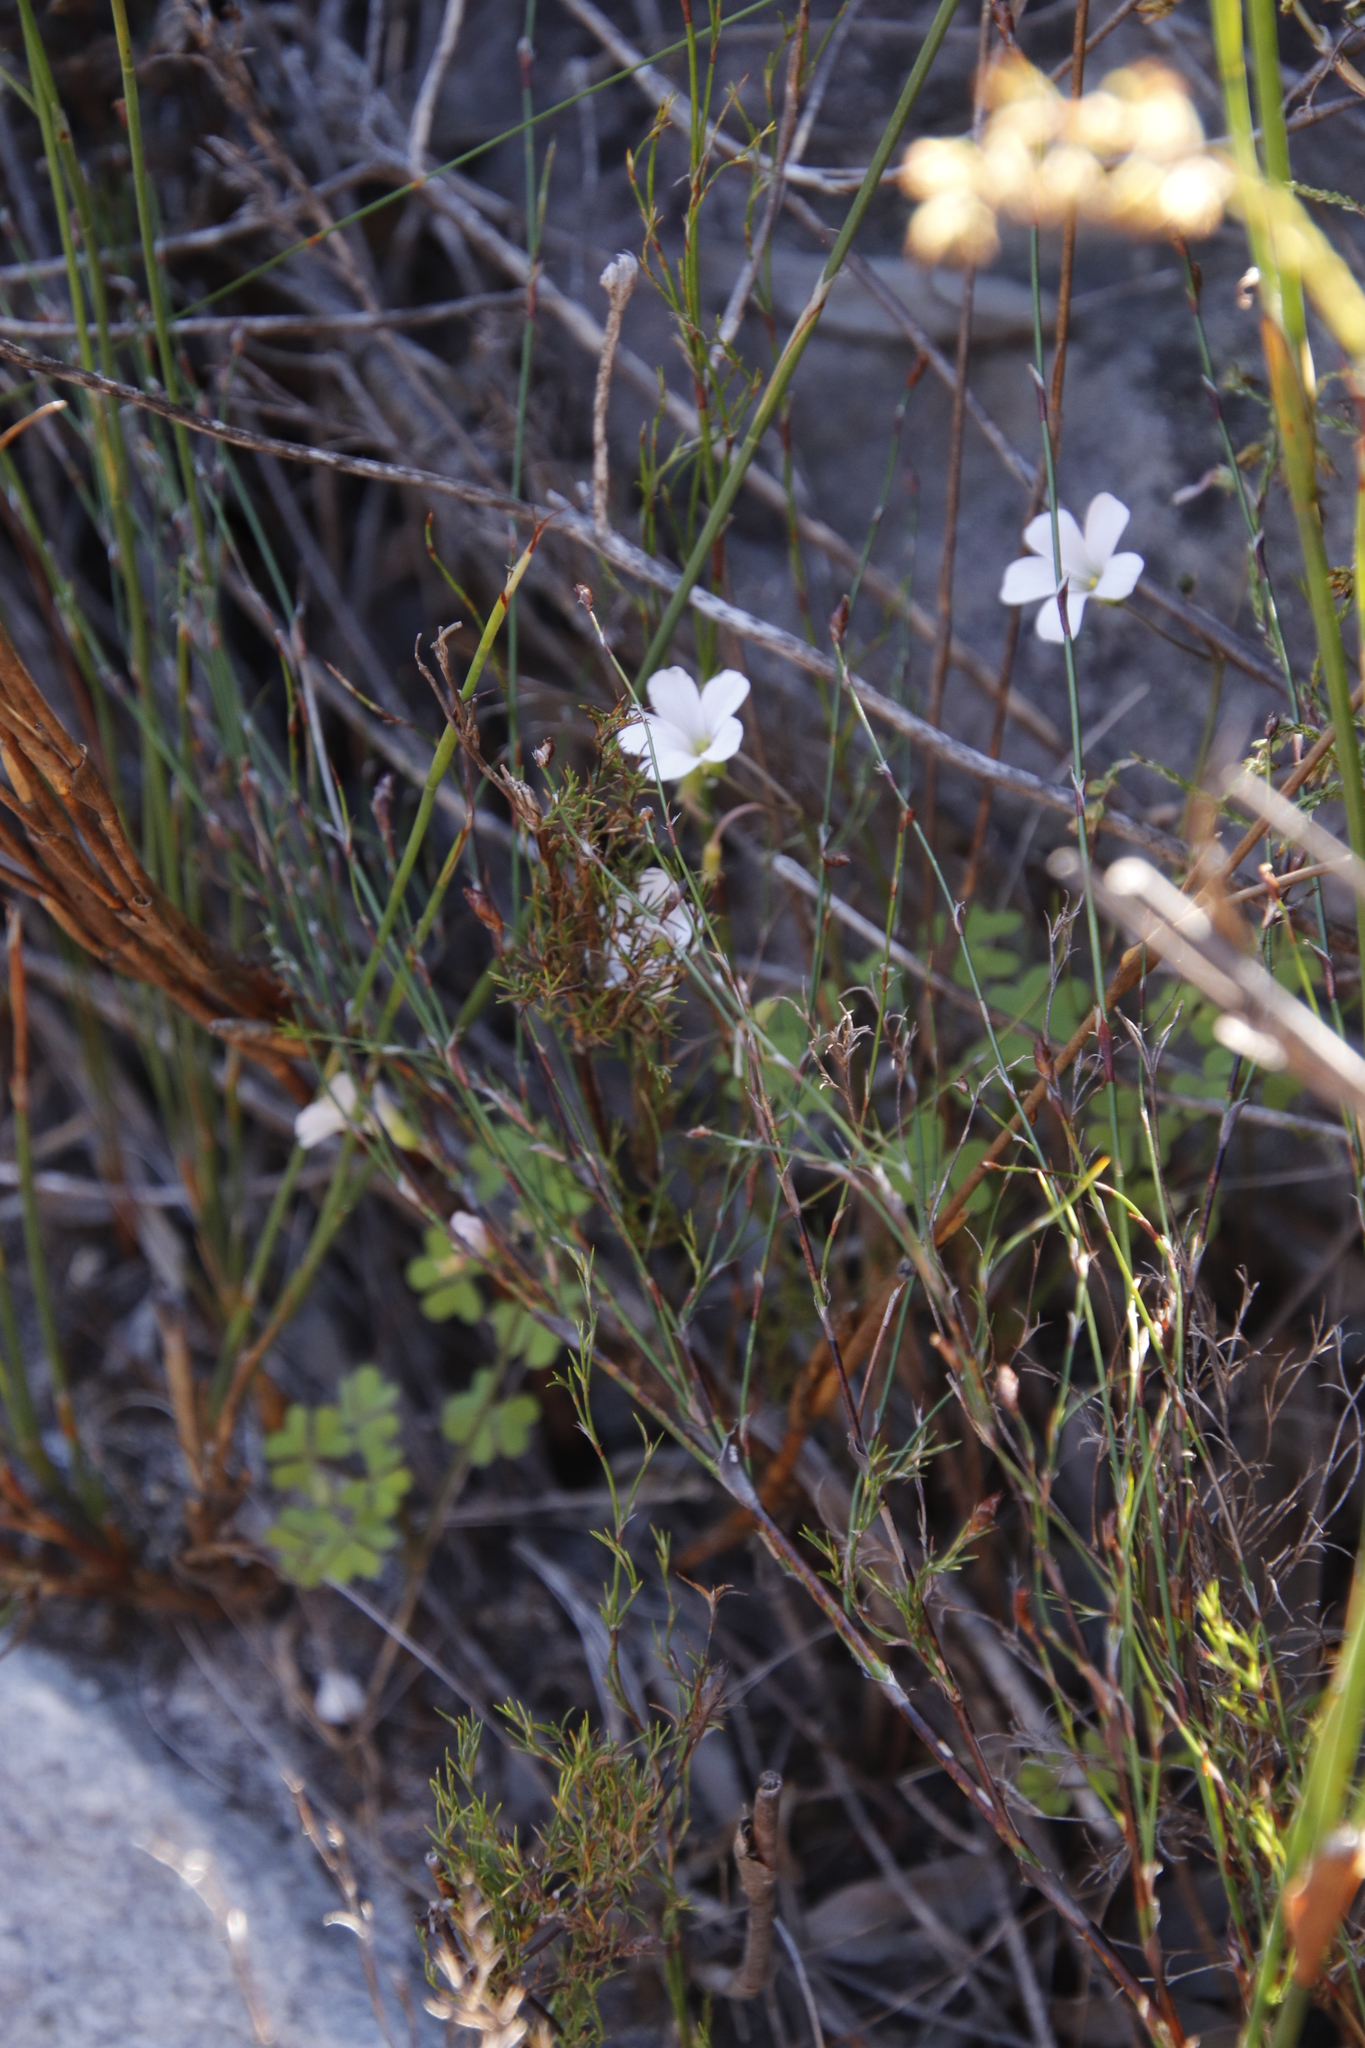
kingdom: Plantae
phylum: Tracheophyta
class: Magnoliopsida
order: Oxalidales
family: Oxalidaceae
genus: Oxalis
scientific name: Oxalis
